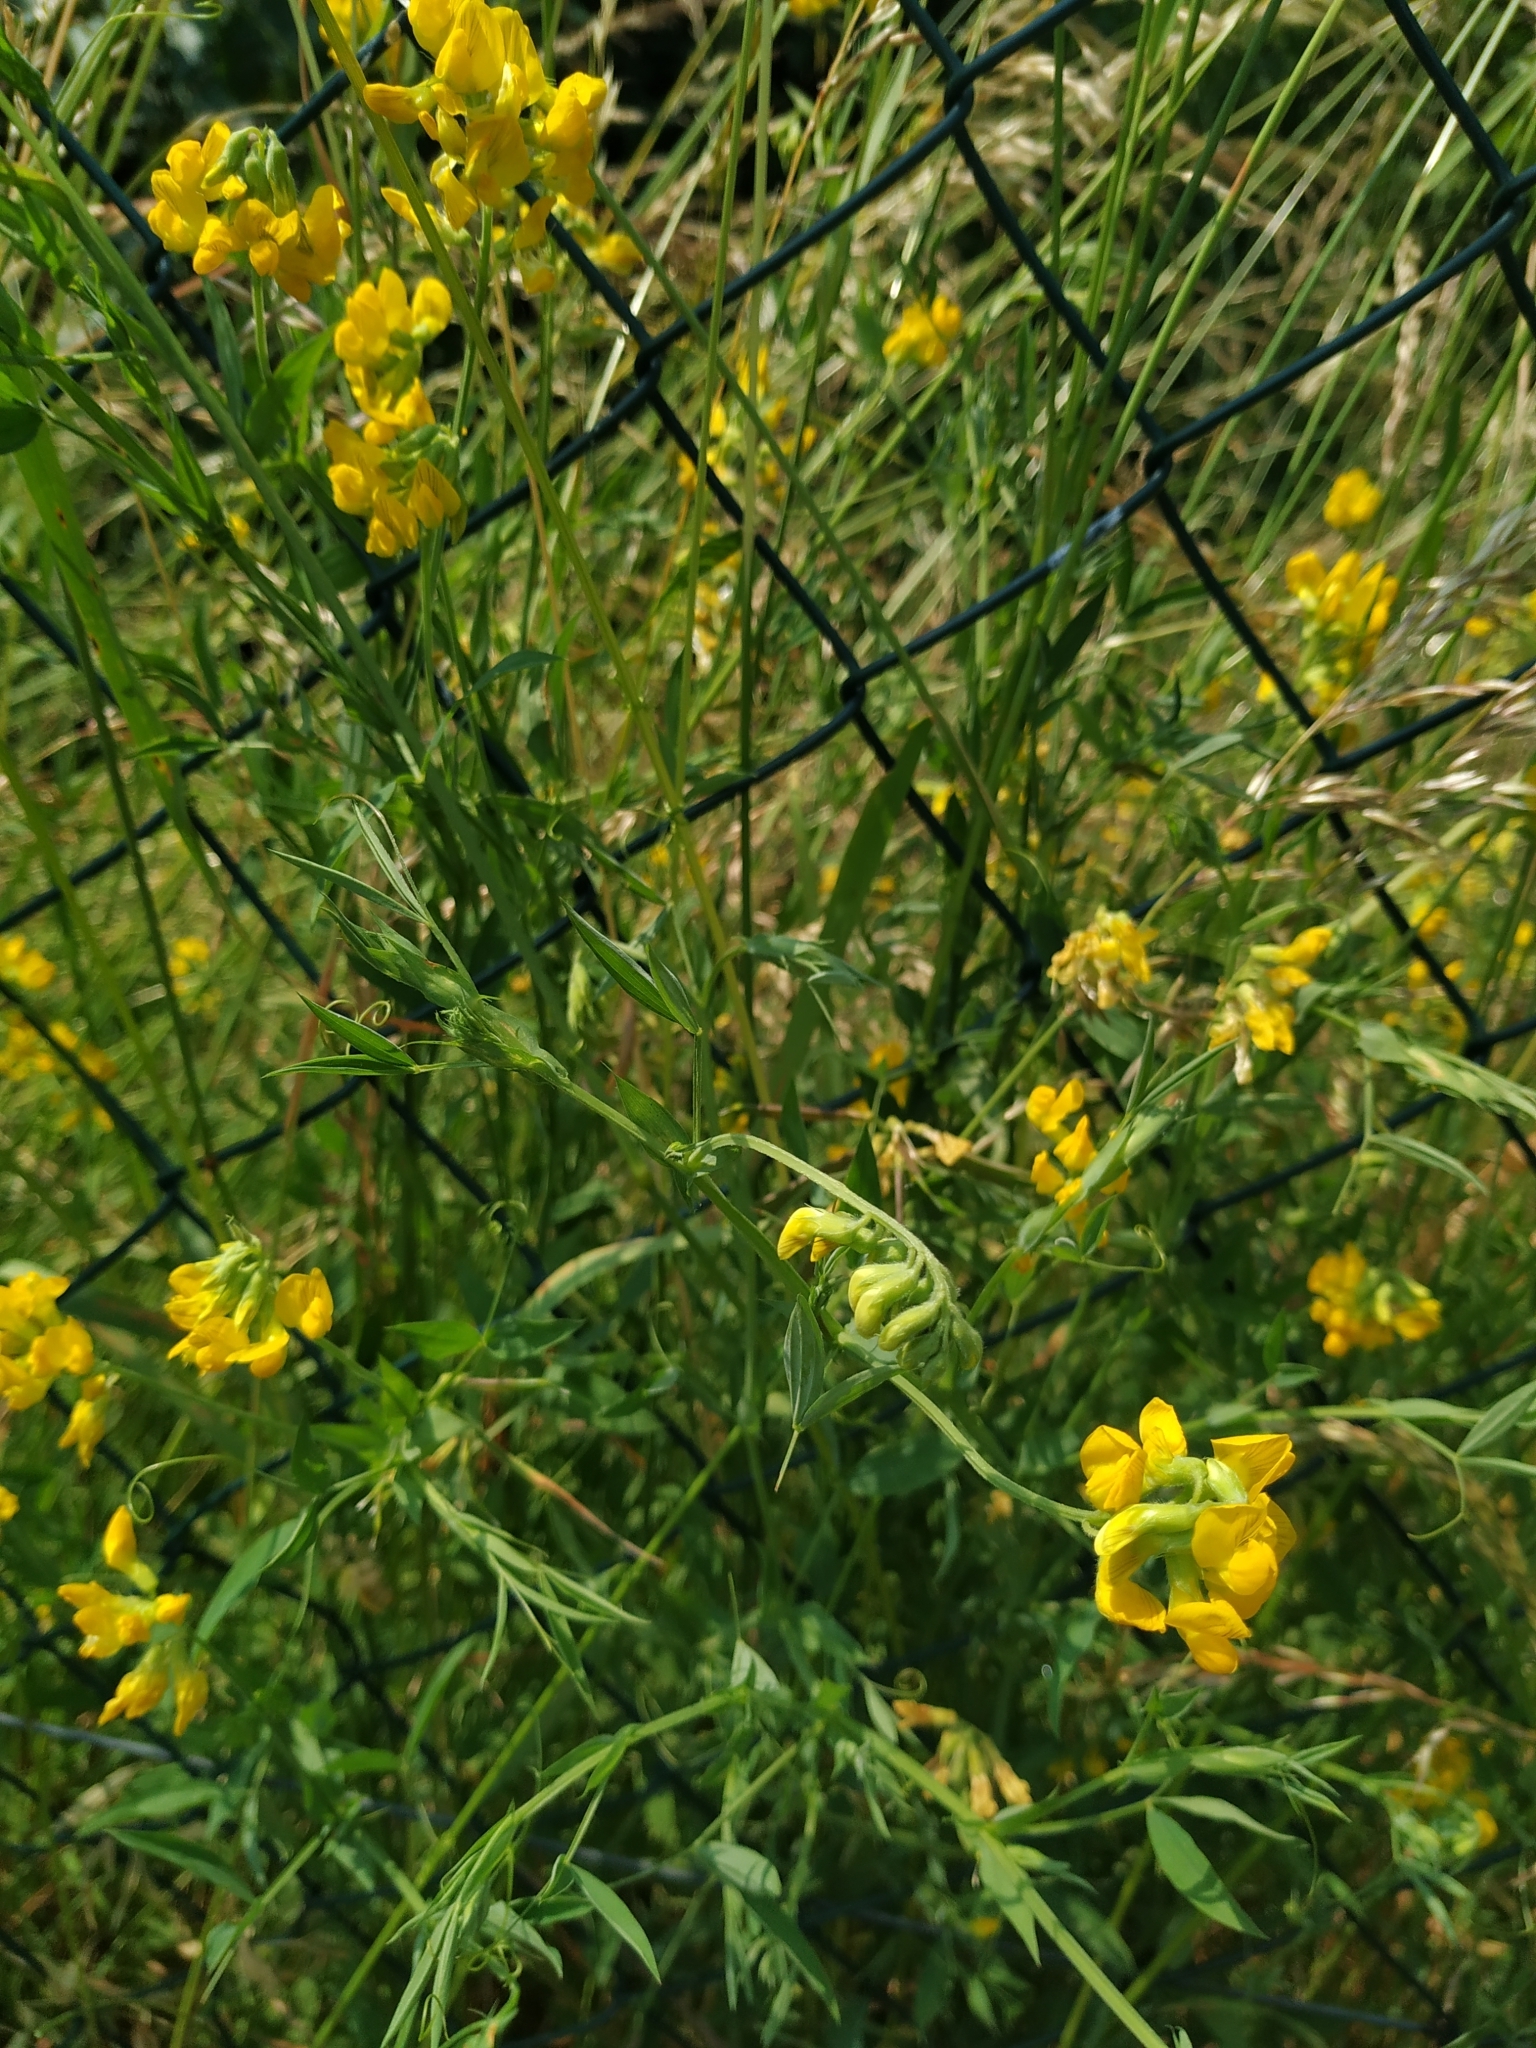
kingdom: Plantae
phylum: Tracheophyta
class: Magnoliopsida
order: Fabales
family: Fabaceae
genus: Lathyrus
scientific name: Lathyrus pratensis
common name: Meadow vetchling
